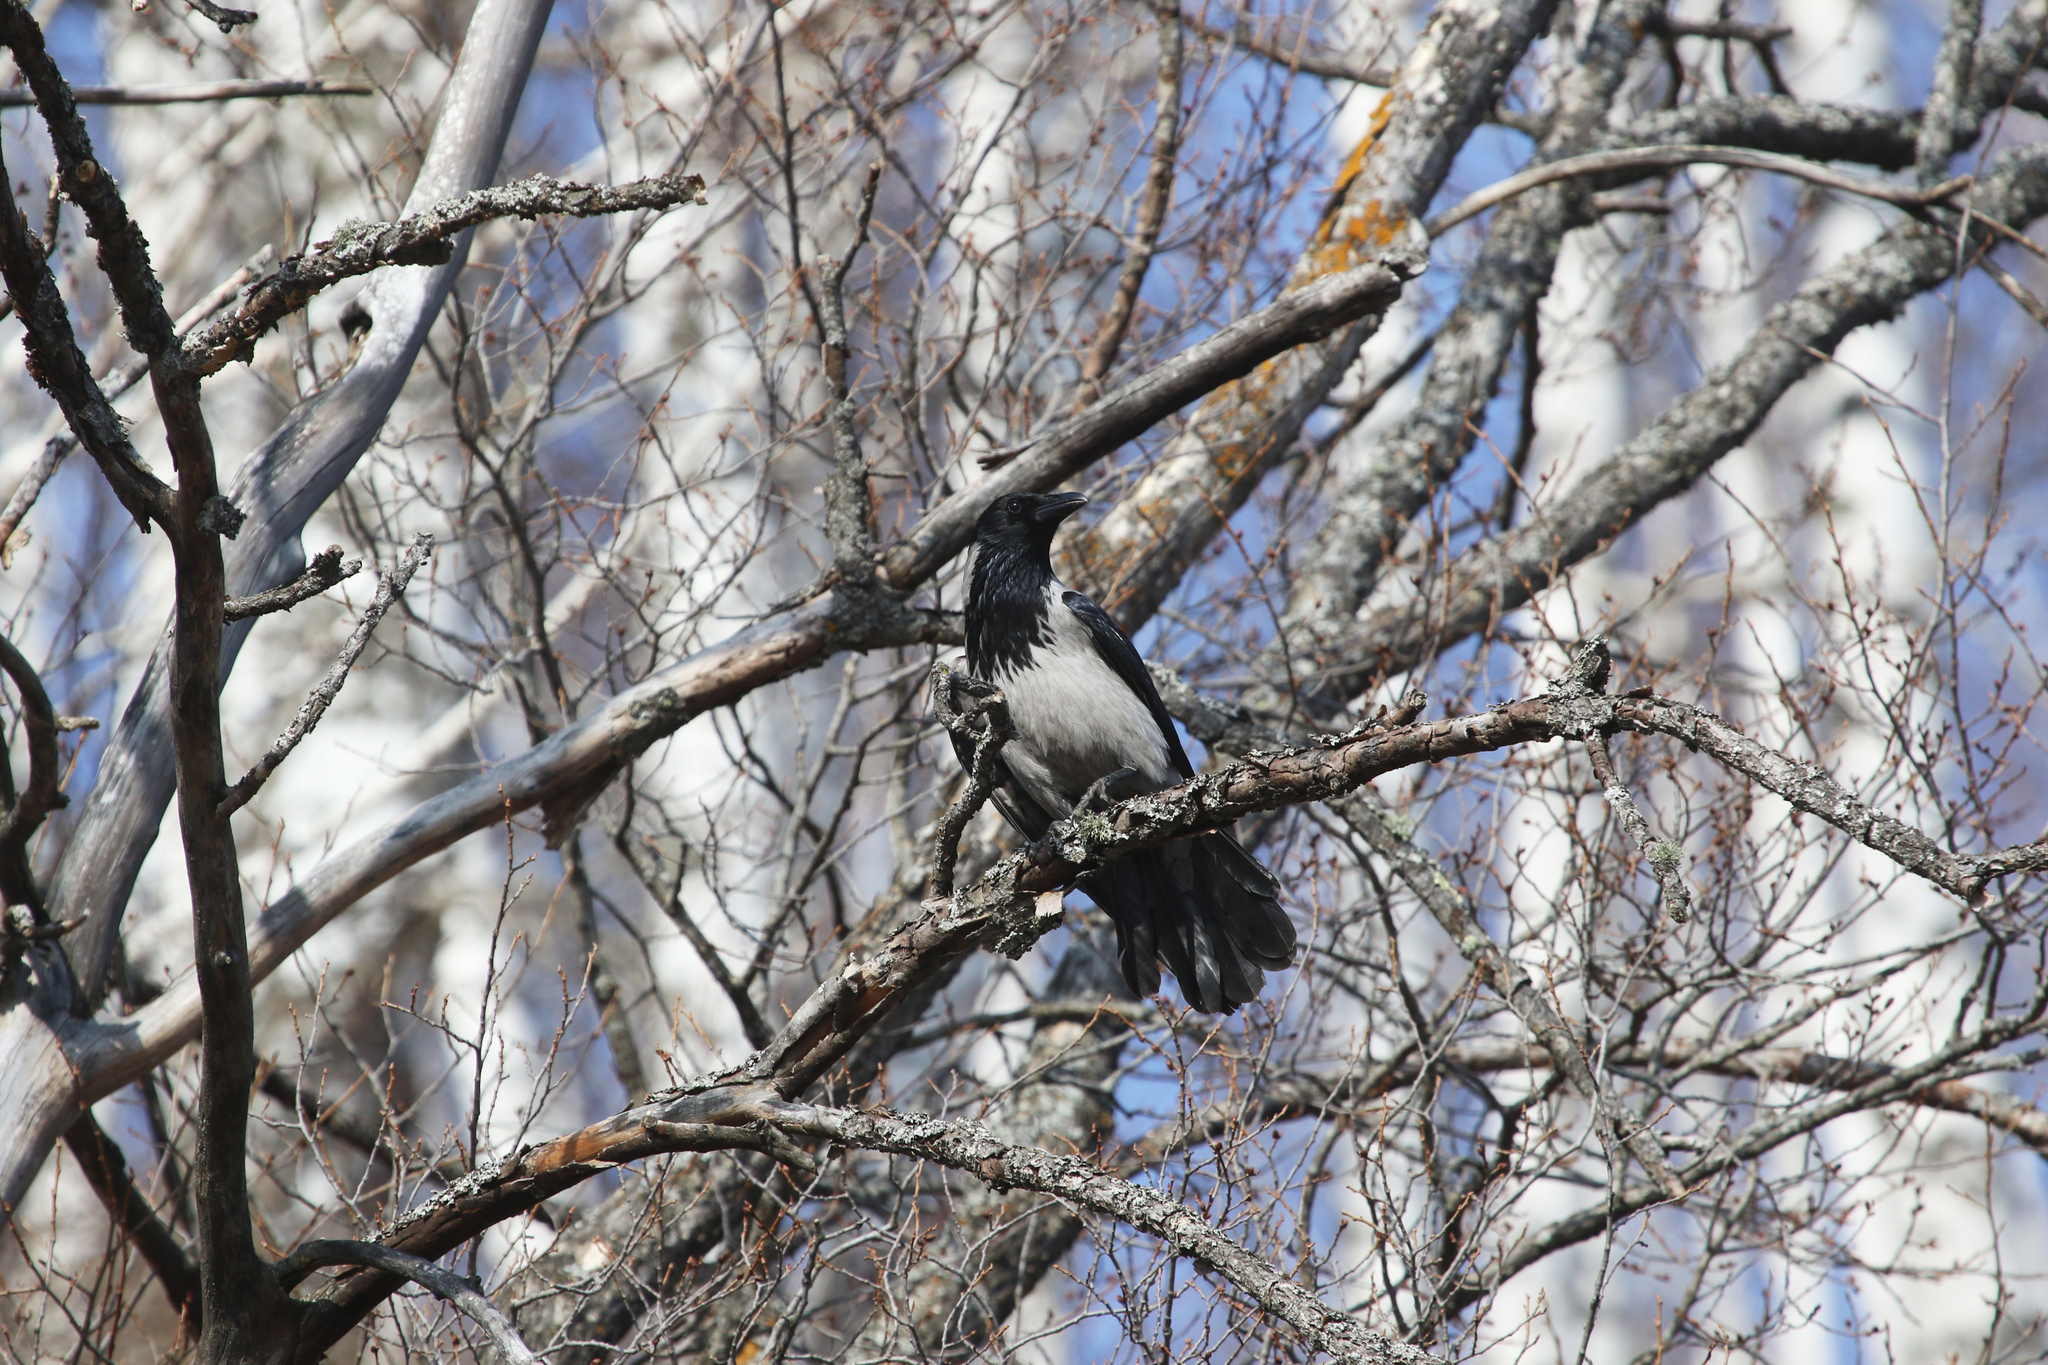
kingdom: Animalia
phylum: Chordata
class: Aves
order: Passeriformes
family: Corvidae
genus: Corvus
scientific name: Corvus cornix
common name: Hooded crow
